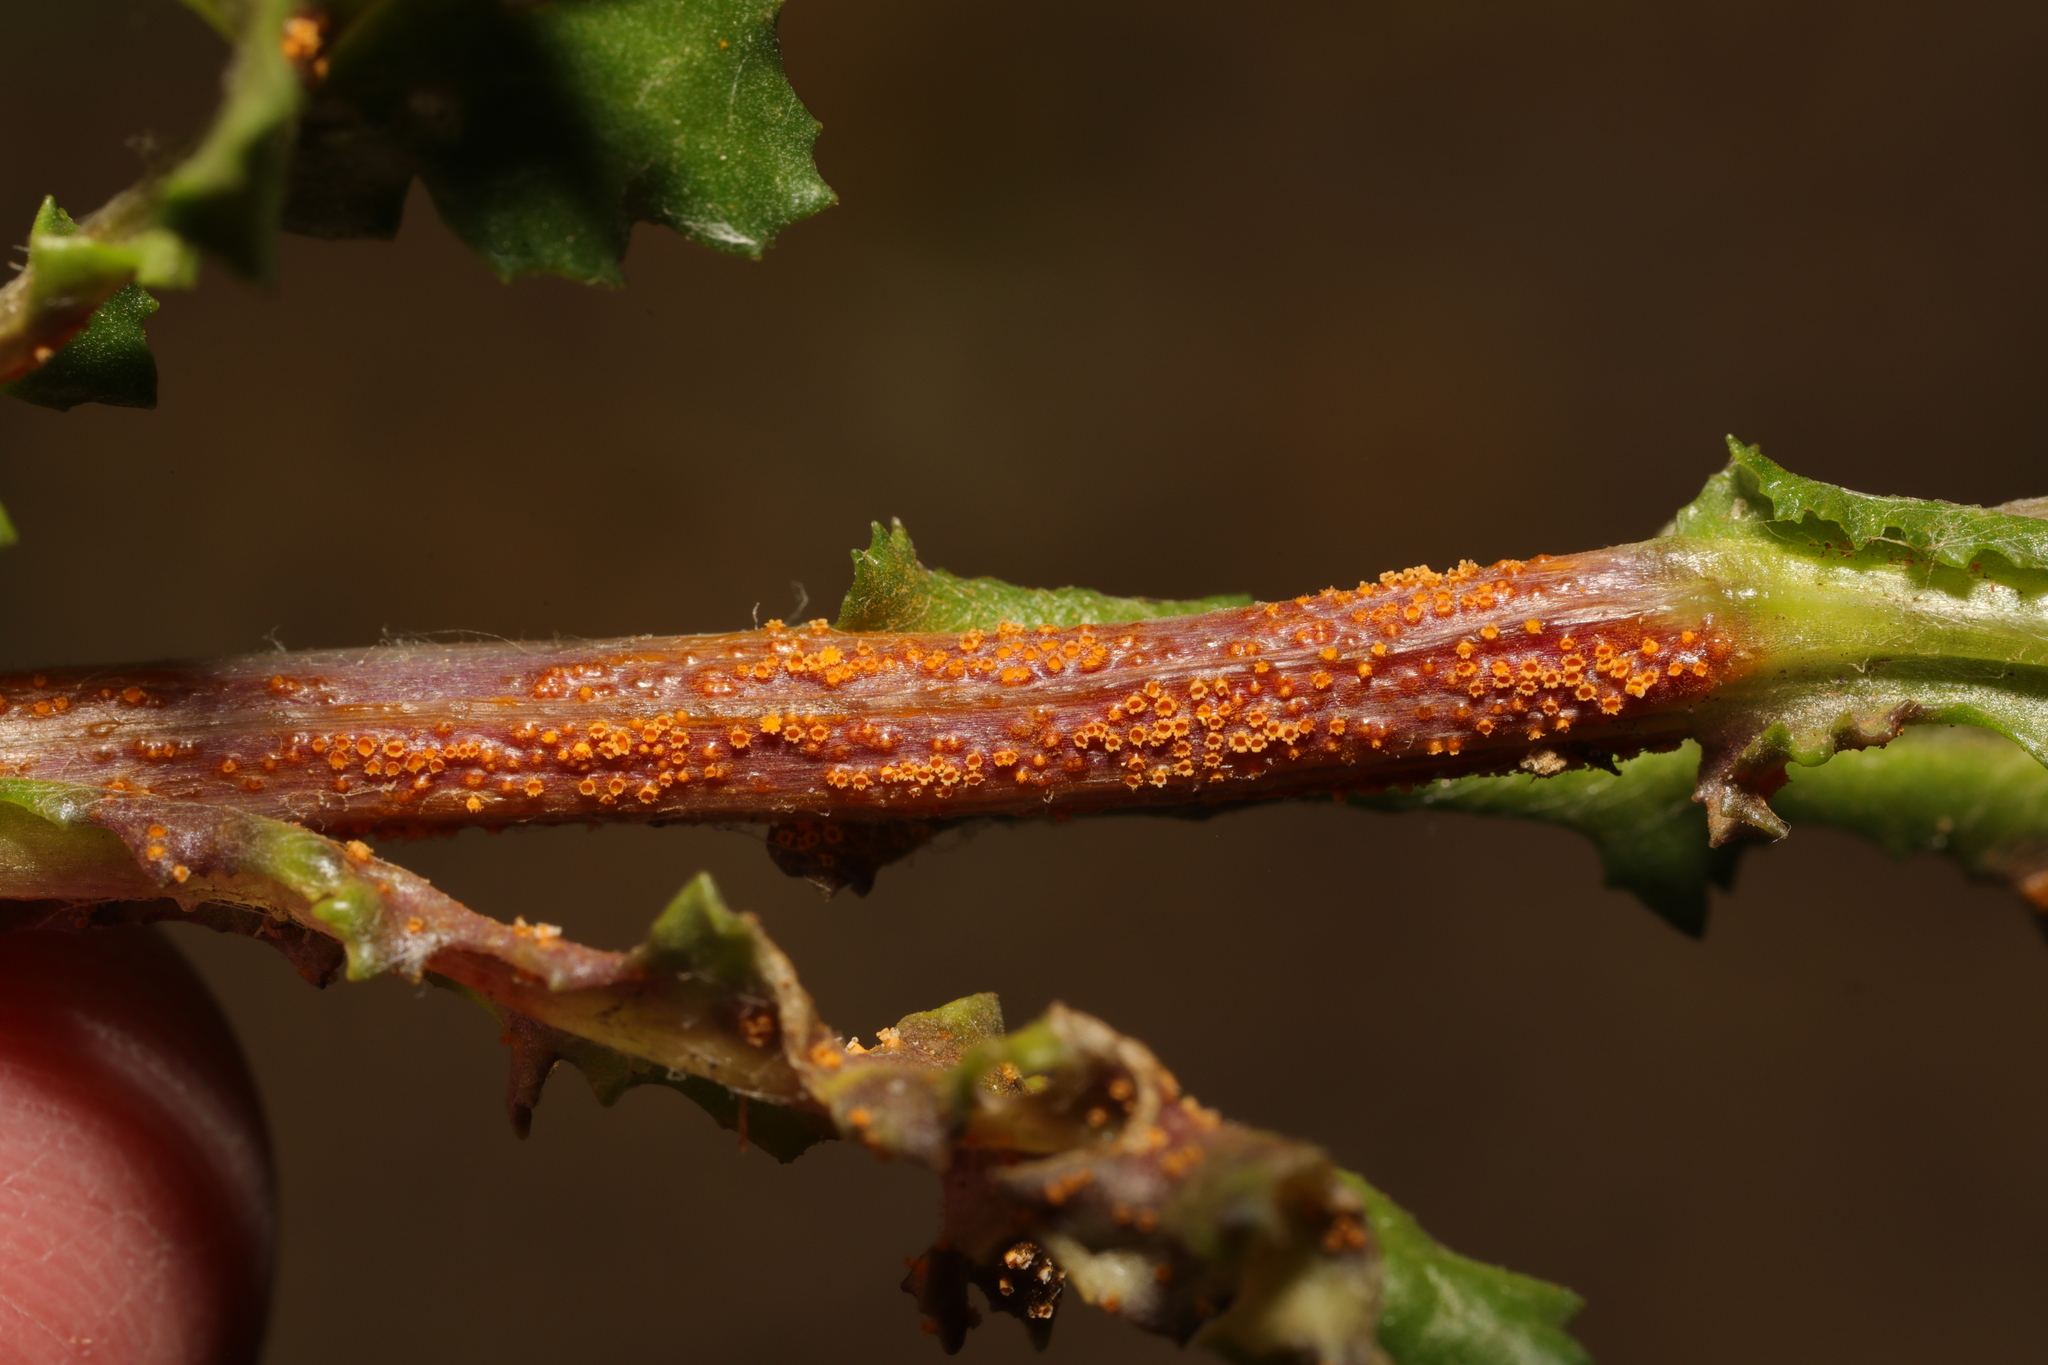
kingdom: Fungi
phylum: Basidiomycota
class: Pucciniomycetes
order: Pucciniales
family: Pucciniaceae
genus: Puccinia
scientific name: Puccinia lagenophorae
